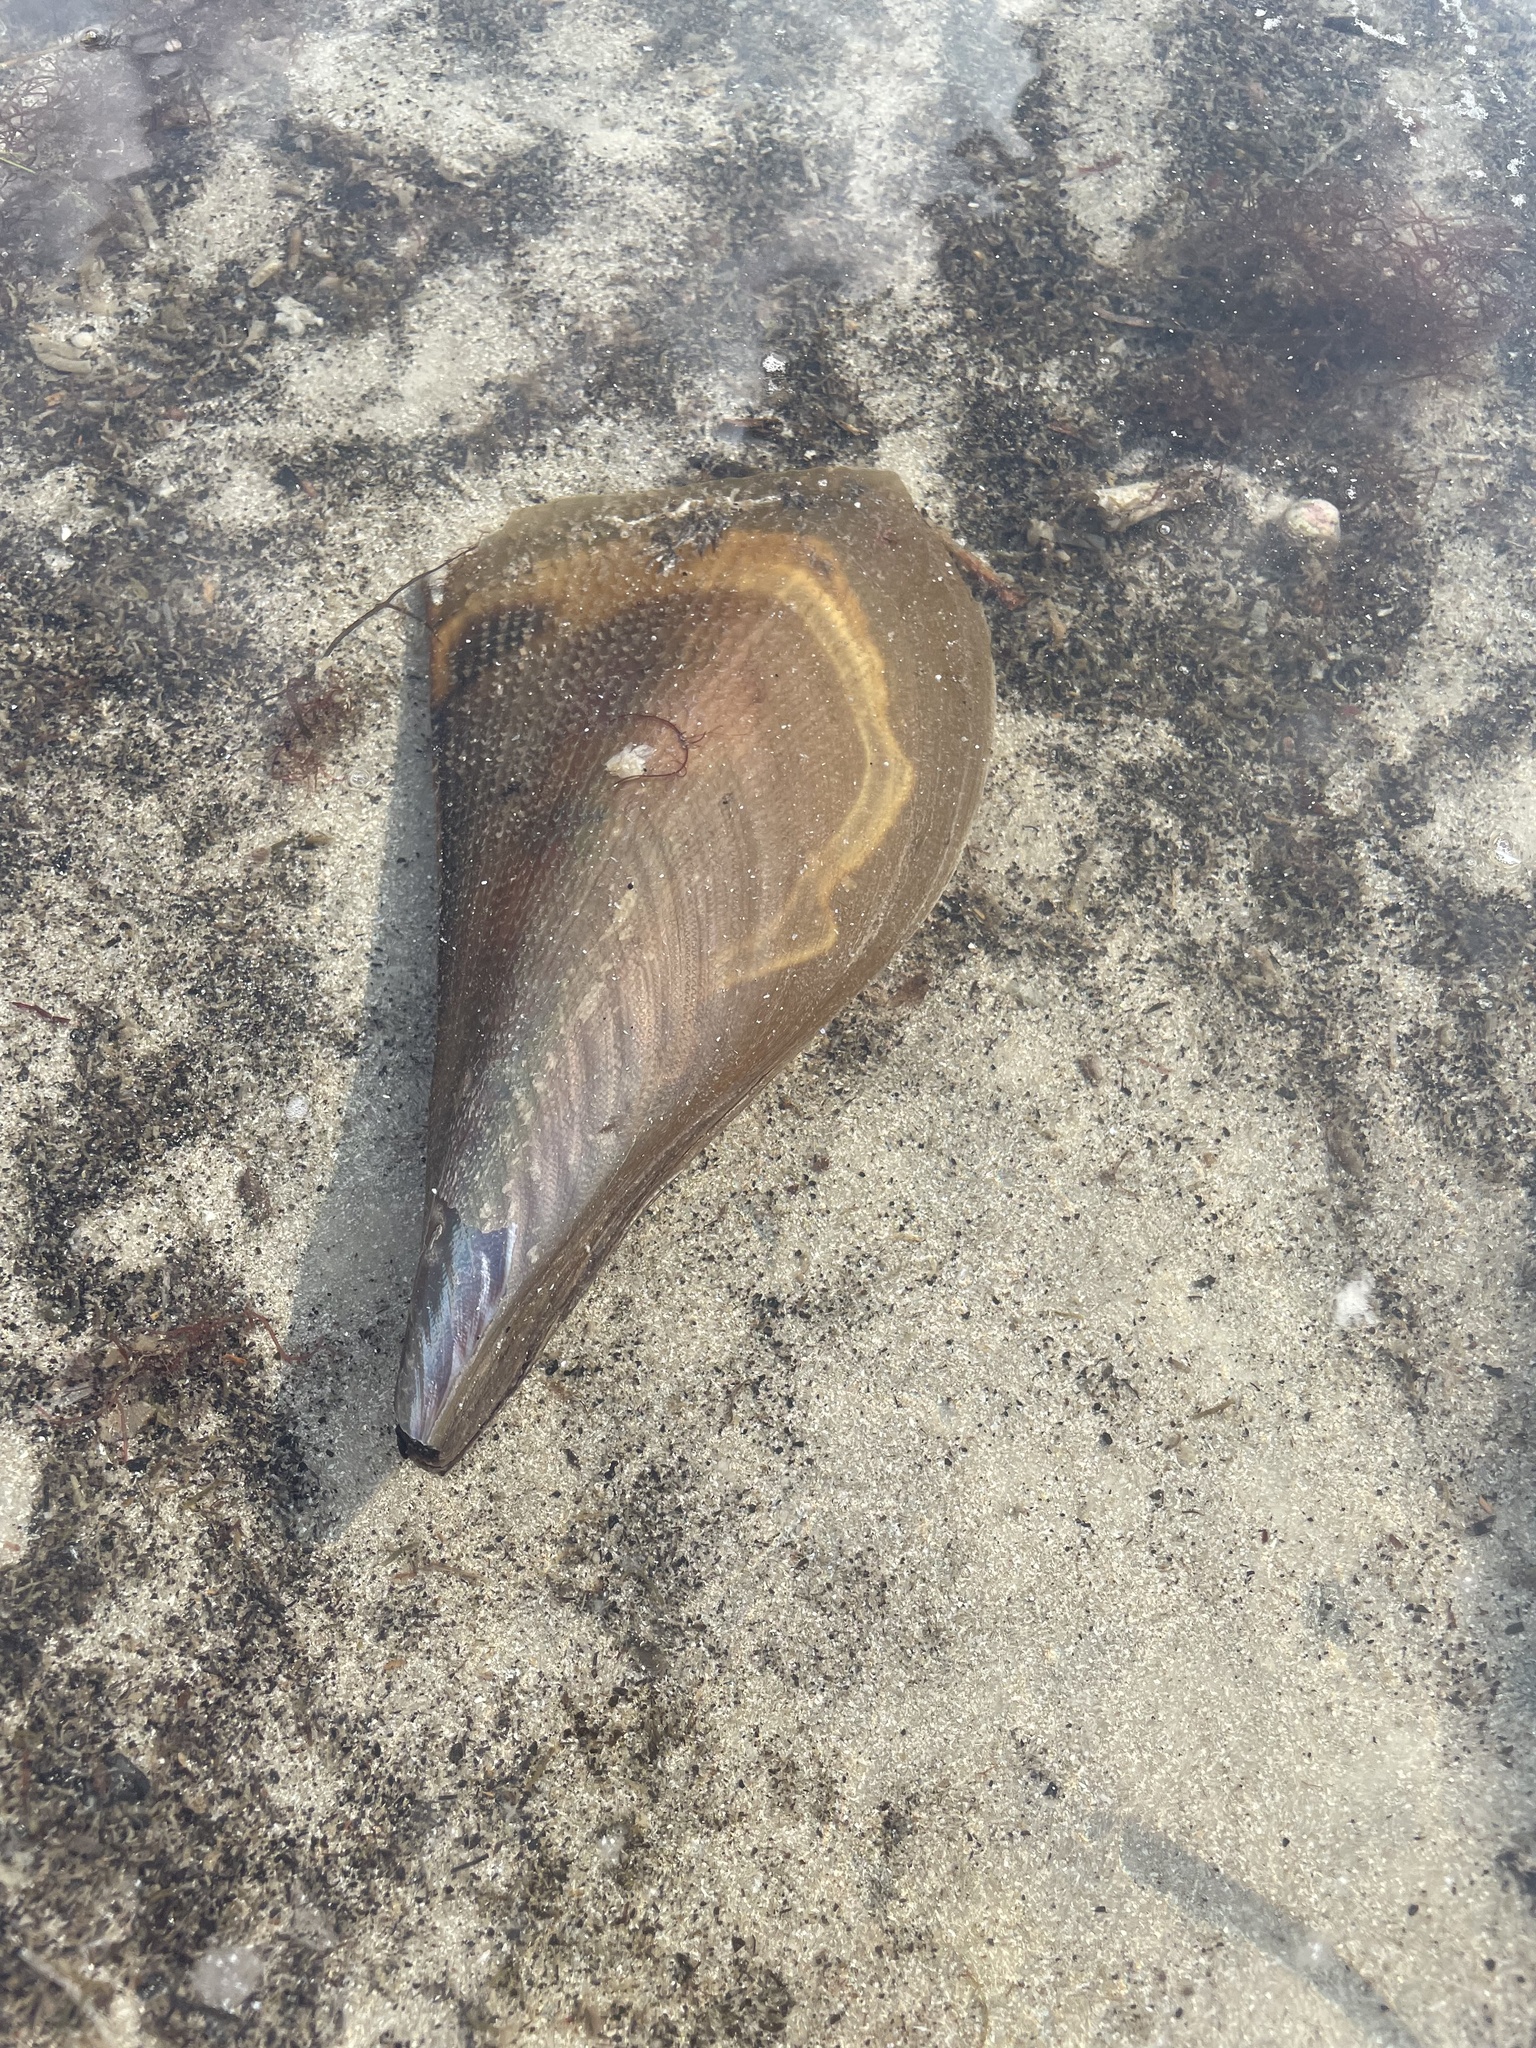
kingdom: Animalia
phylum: Mollusca
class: Bivalvia
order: Ostreida
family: Pinnidae
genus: Atrina
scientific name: Atrina serrata
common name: Saw-toothed penshell
